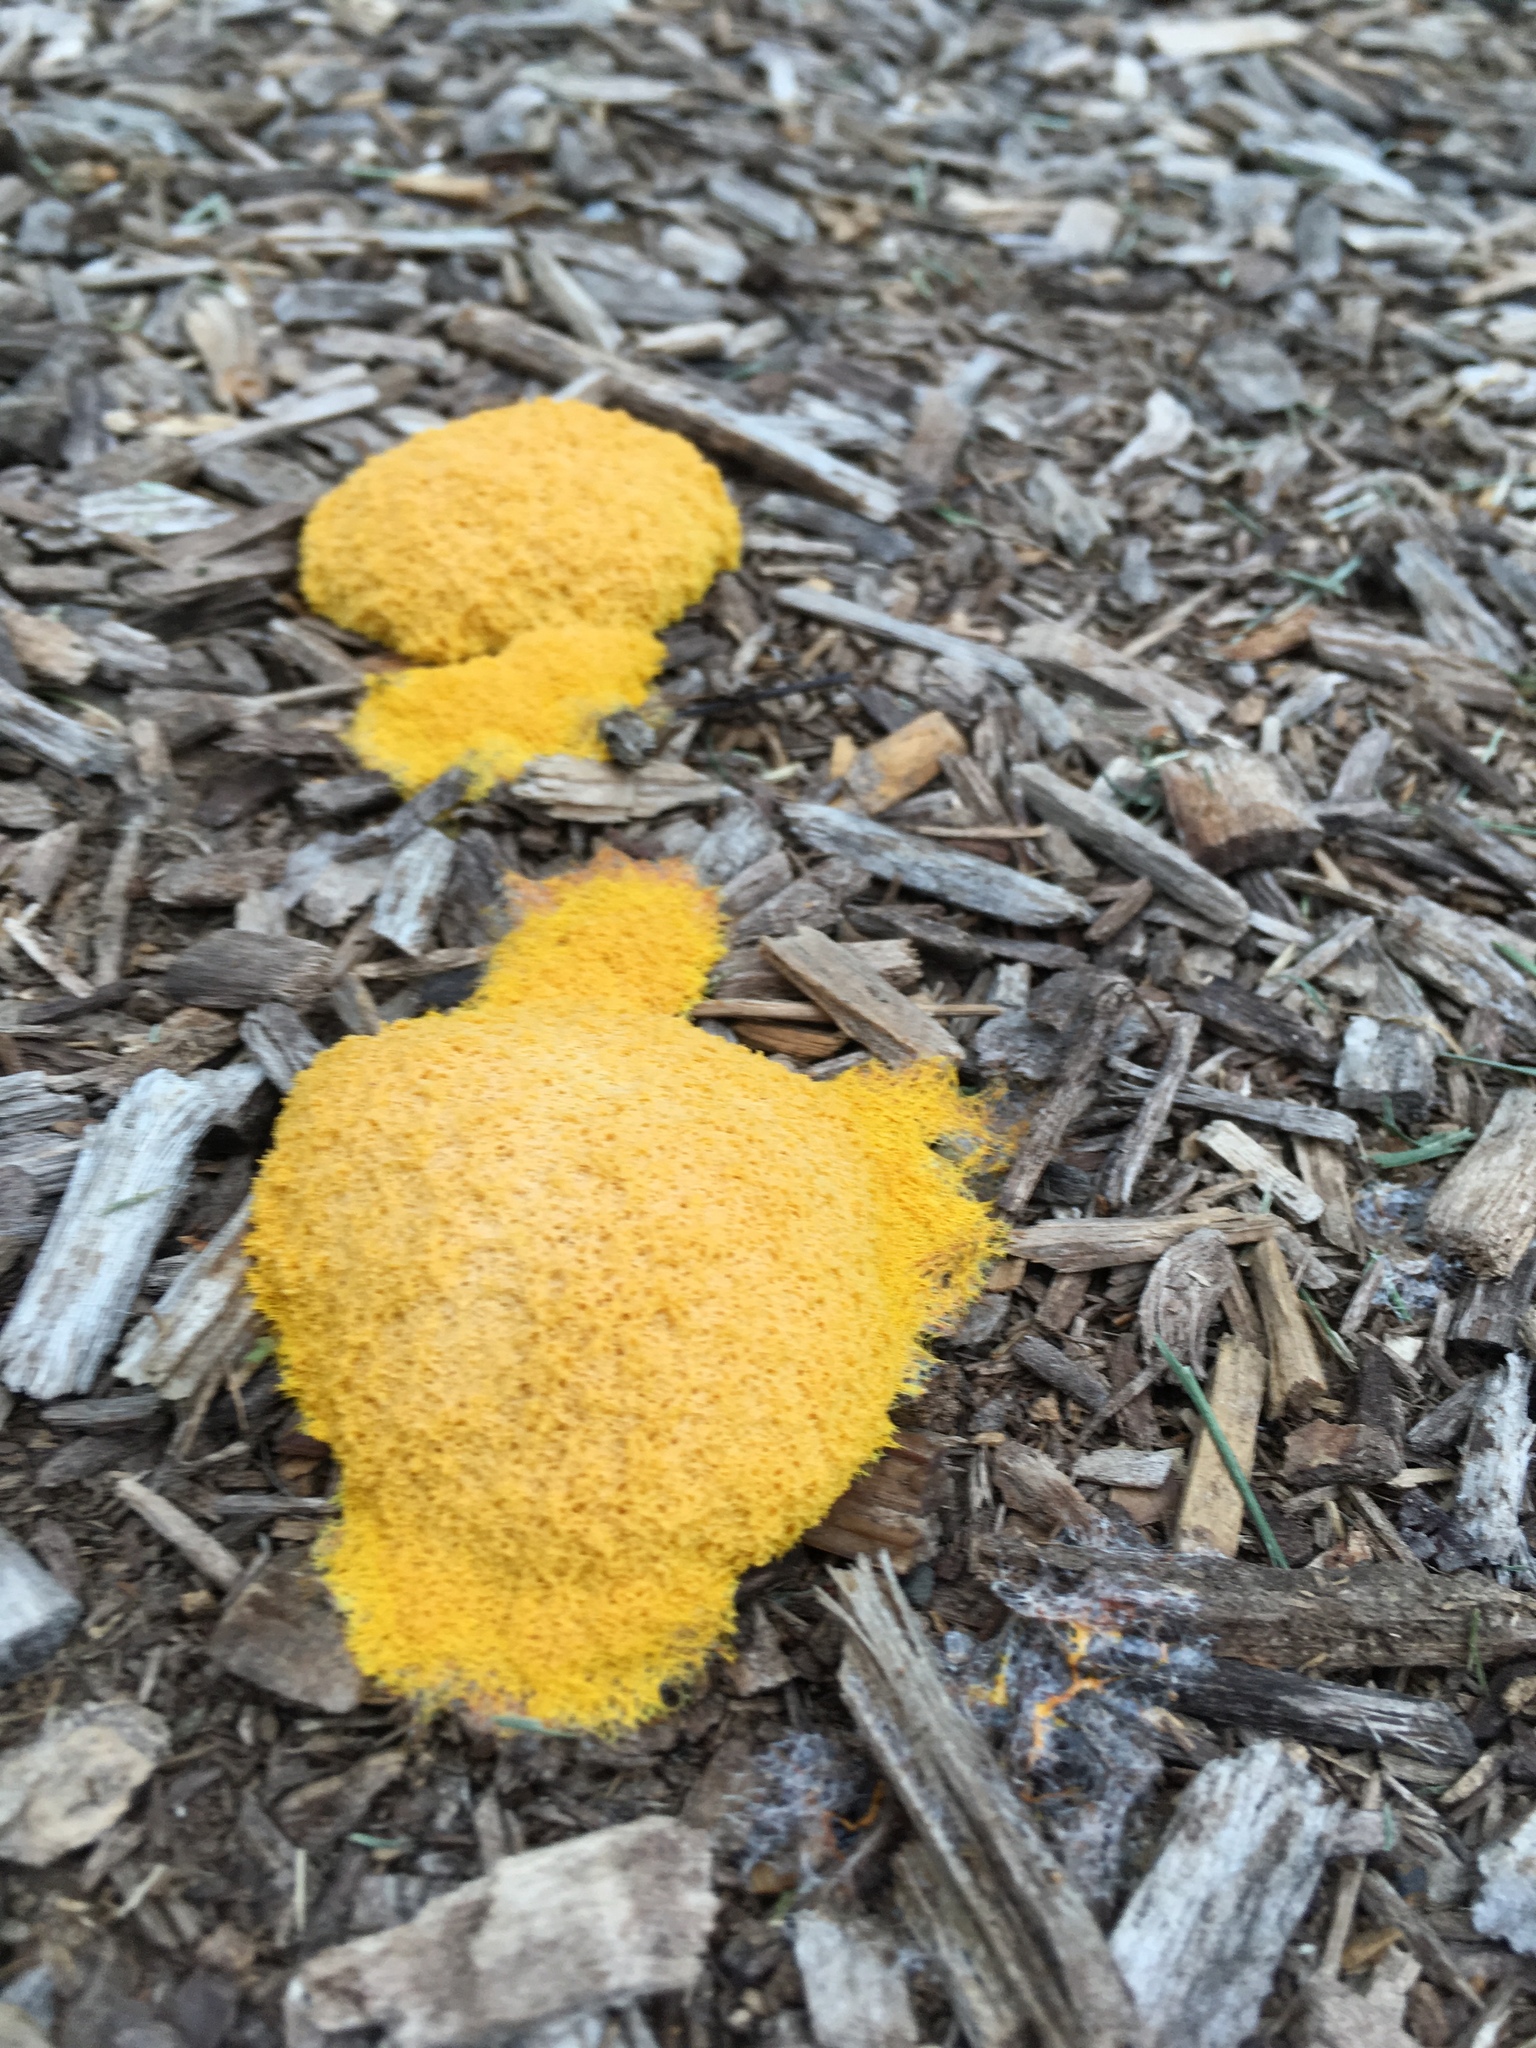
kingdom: Protozoa
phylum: Mycetozoa
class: Myxomycetes
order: Physarales
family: Physaraceae
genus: Fuligo
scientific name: Fuligo septica
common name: Dog vomit slime mold
